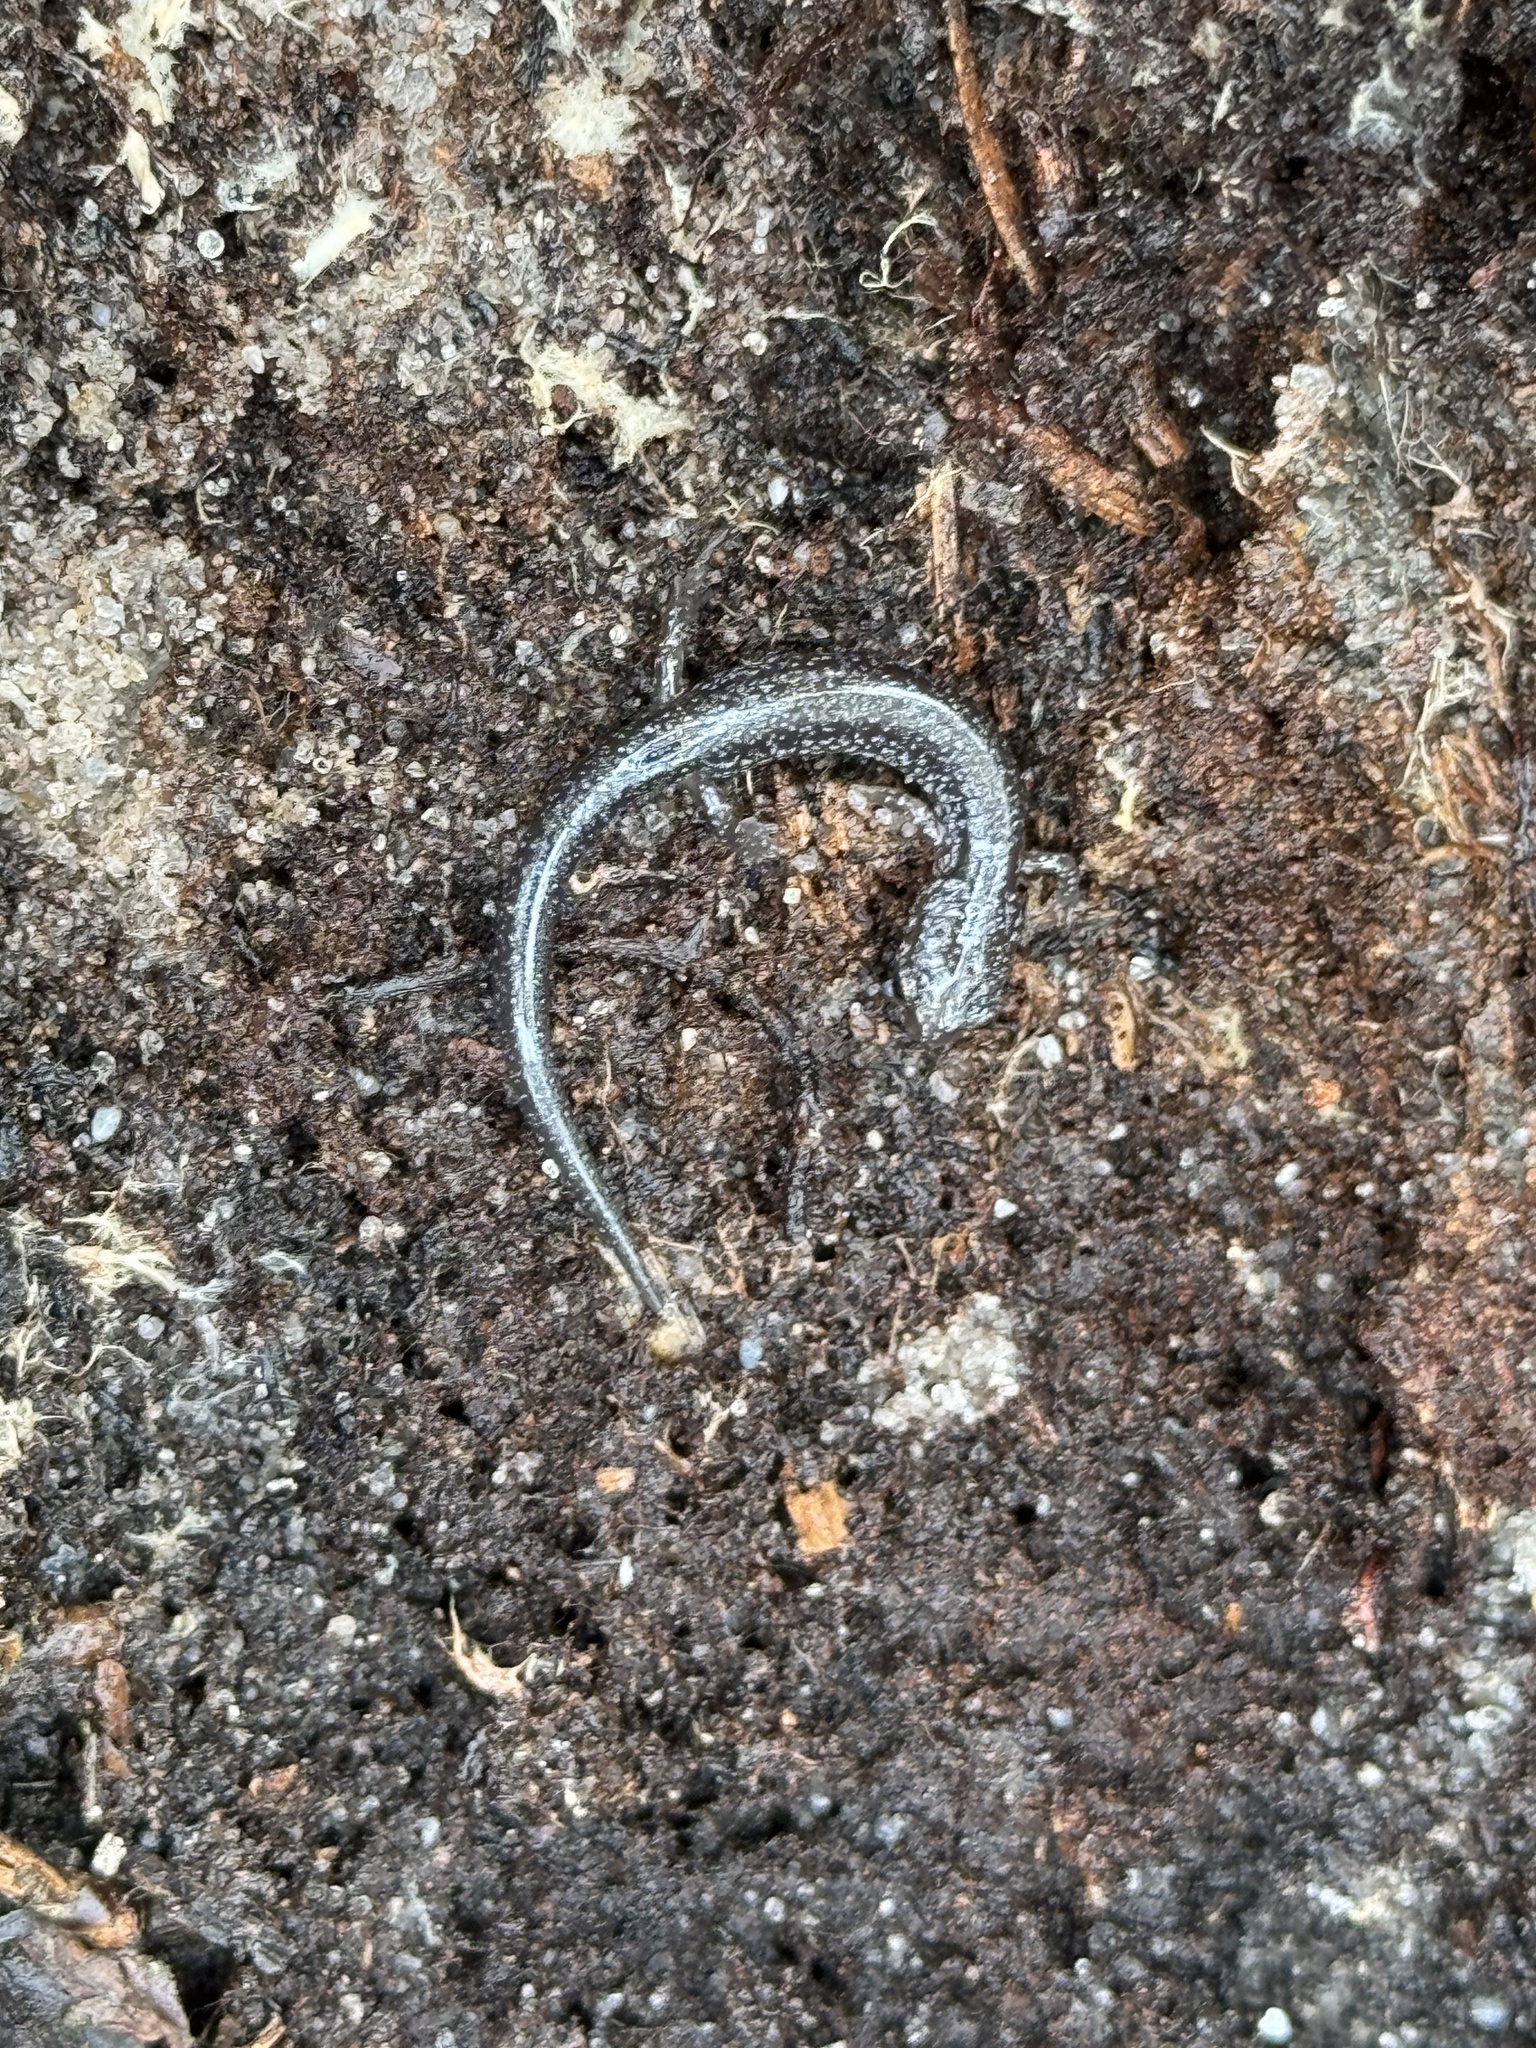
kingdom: Animalia
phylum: Chordata
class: Amphibia
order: Caudata
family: Plethodontidae
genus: Plethodon
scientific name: Plethodon cinereus
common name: Redback salamander
